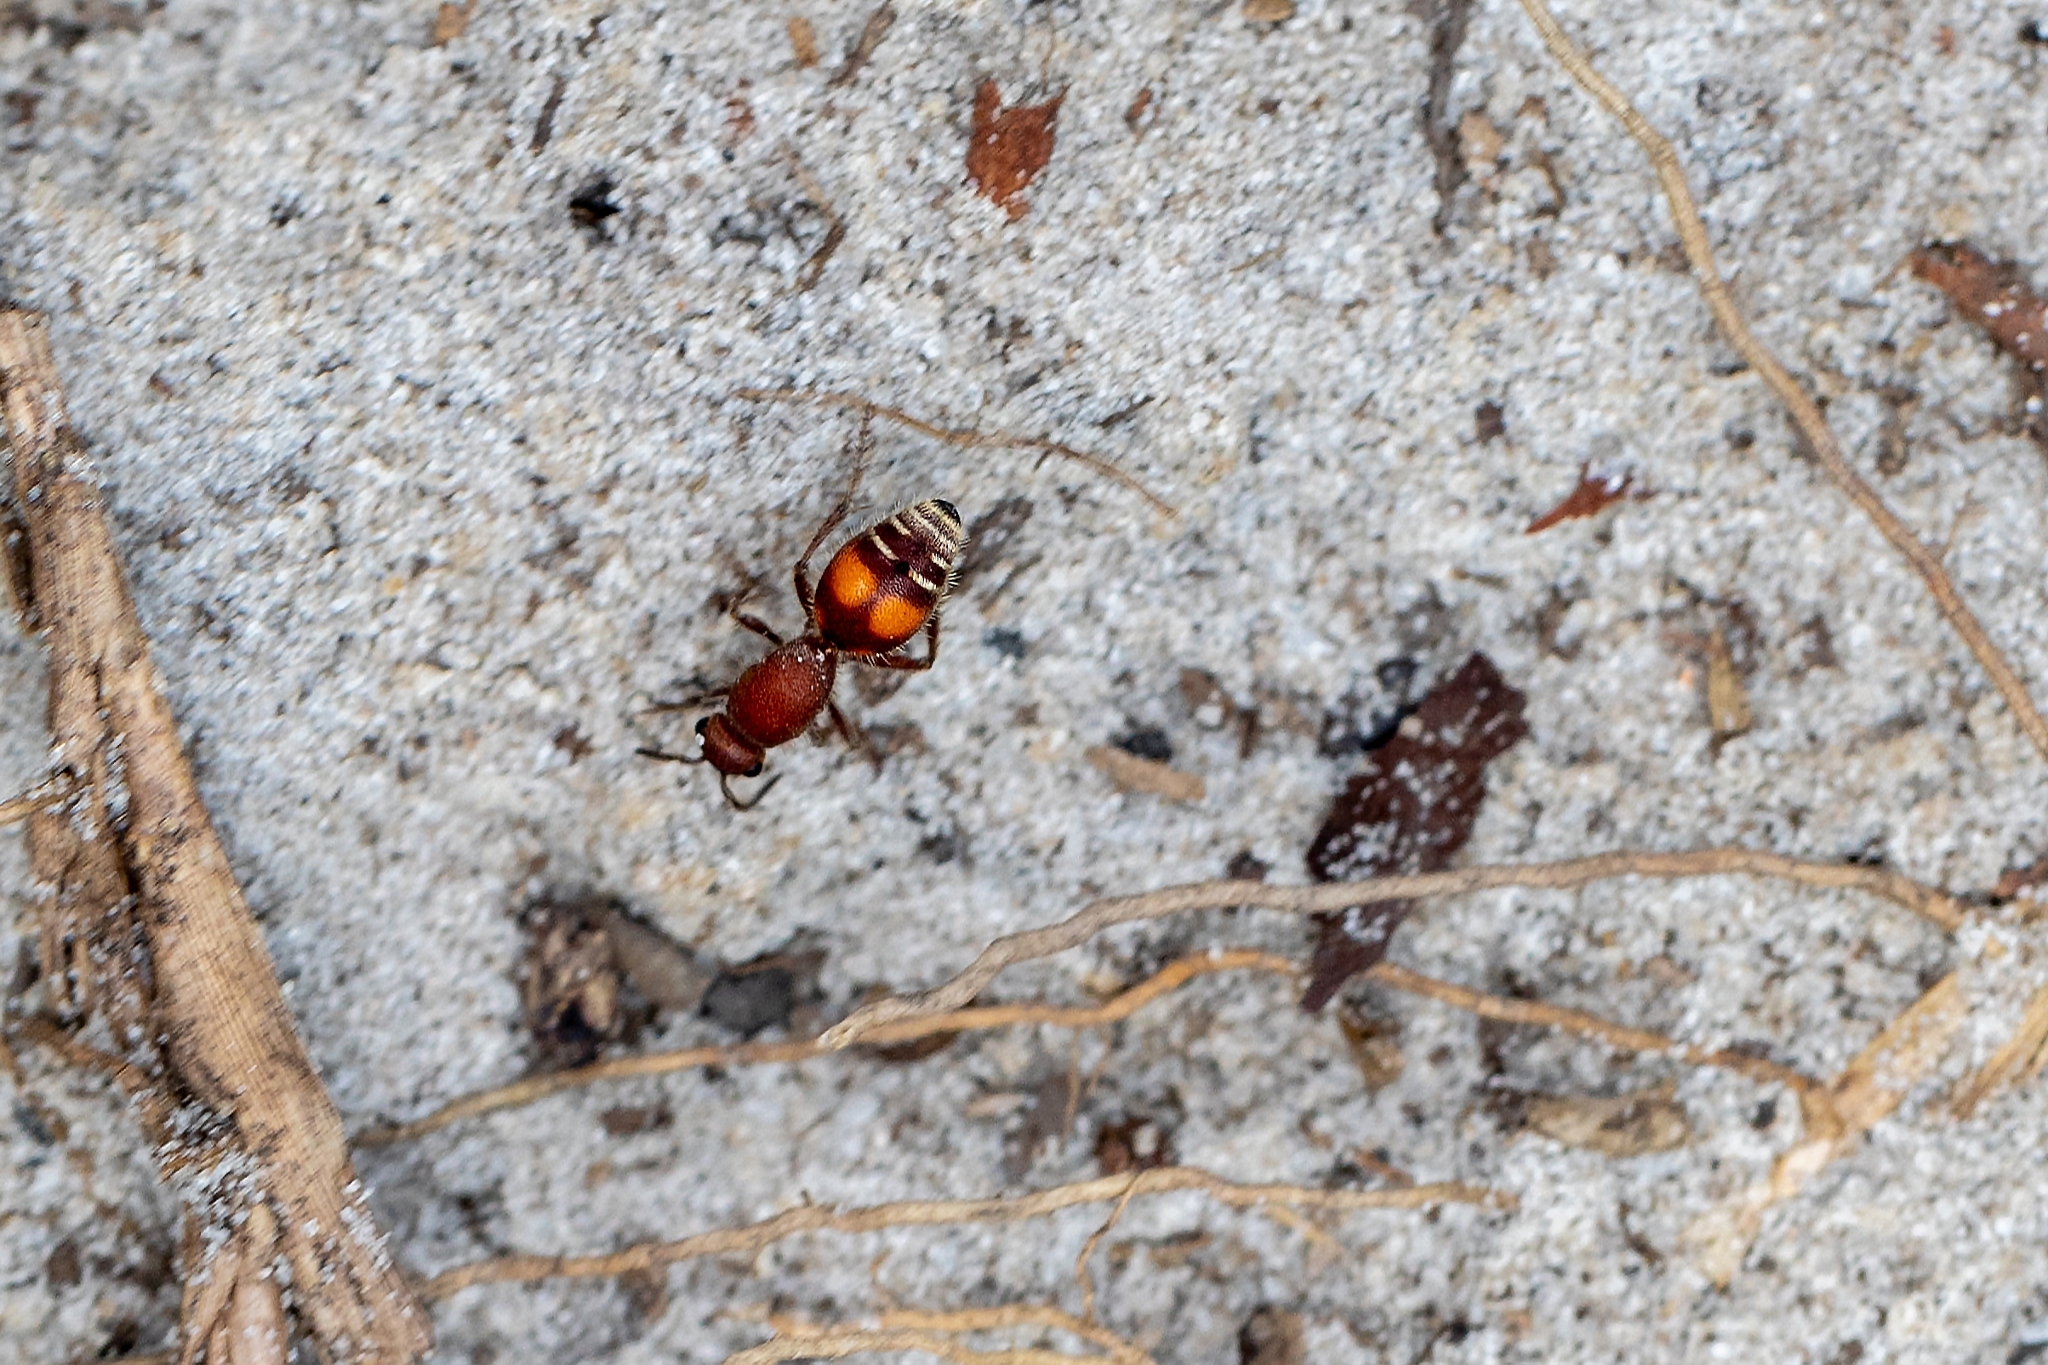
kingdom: Animalia
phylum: Arthropoda
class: Insecta
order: Hymenoptera
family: Mutillidae
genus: Dasymutilla
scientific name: Dasymutilla
